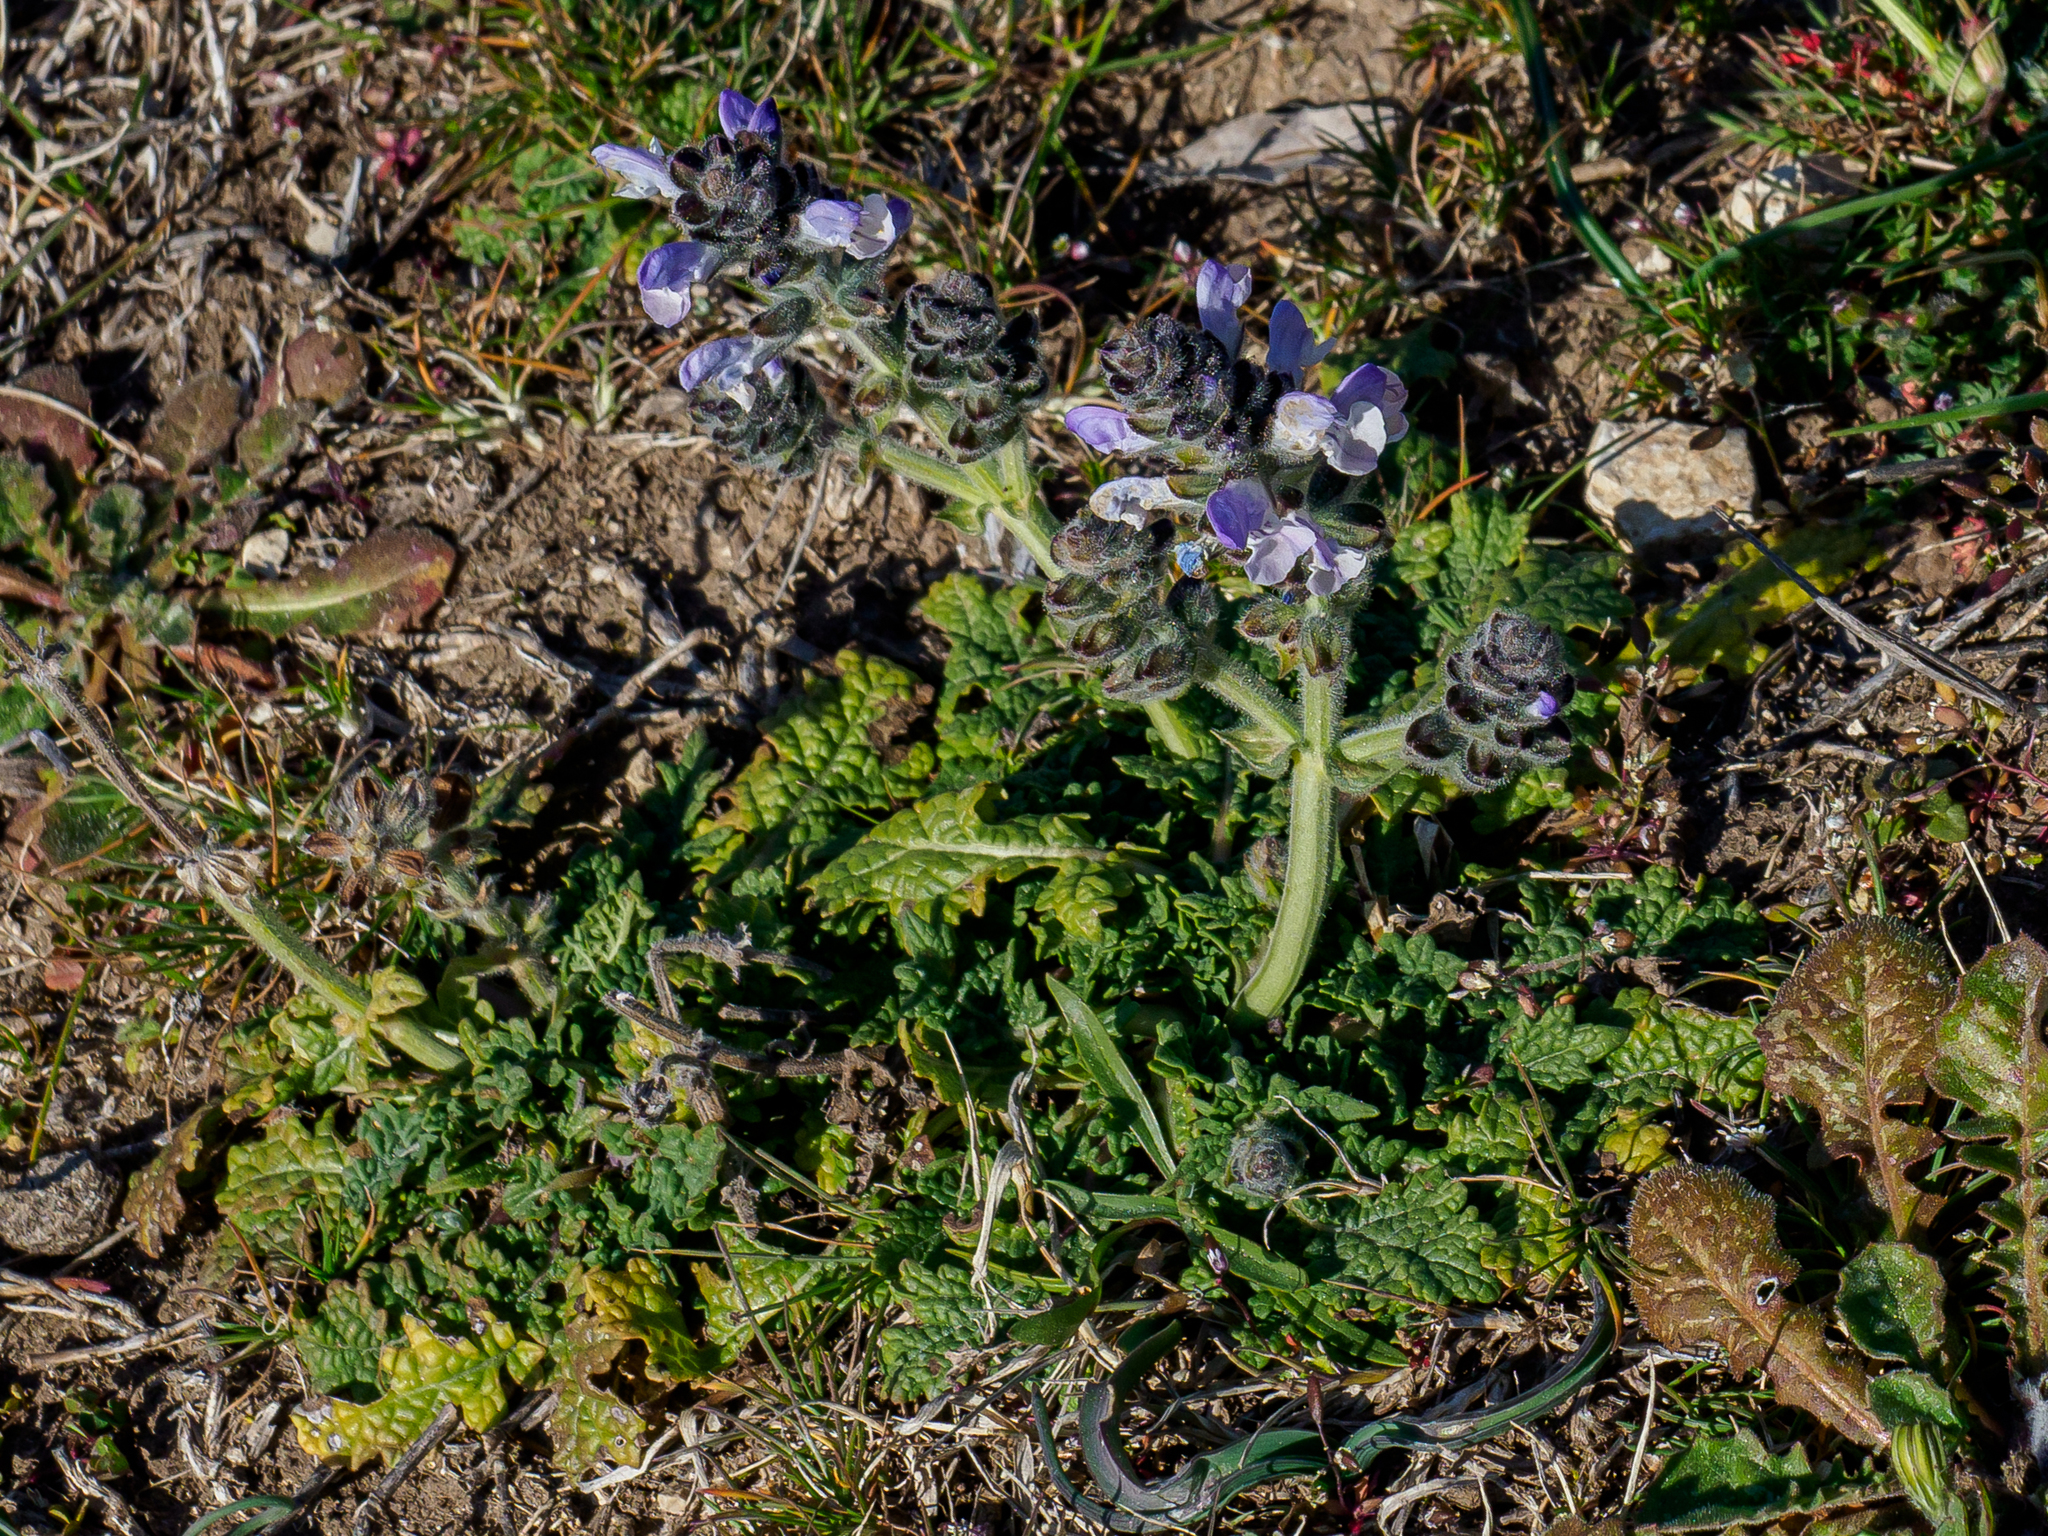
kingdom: Plantae
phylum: Tracheophyta
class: Magnoliopsida
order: Lamiales
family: Lamiaceae
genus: Salvia
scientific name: Salvia verbenaca
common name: Wild clary
